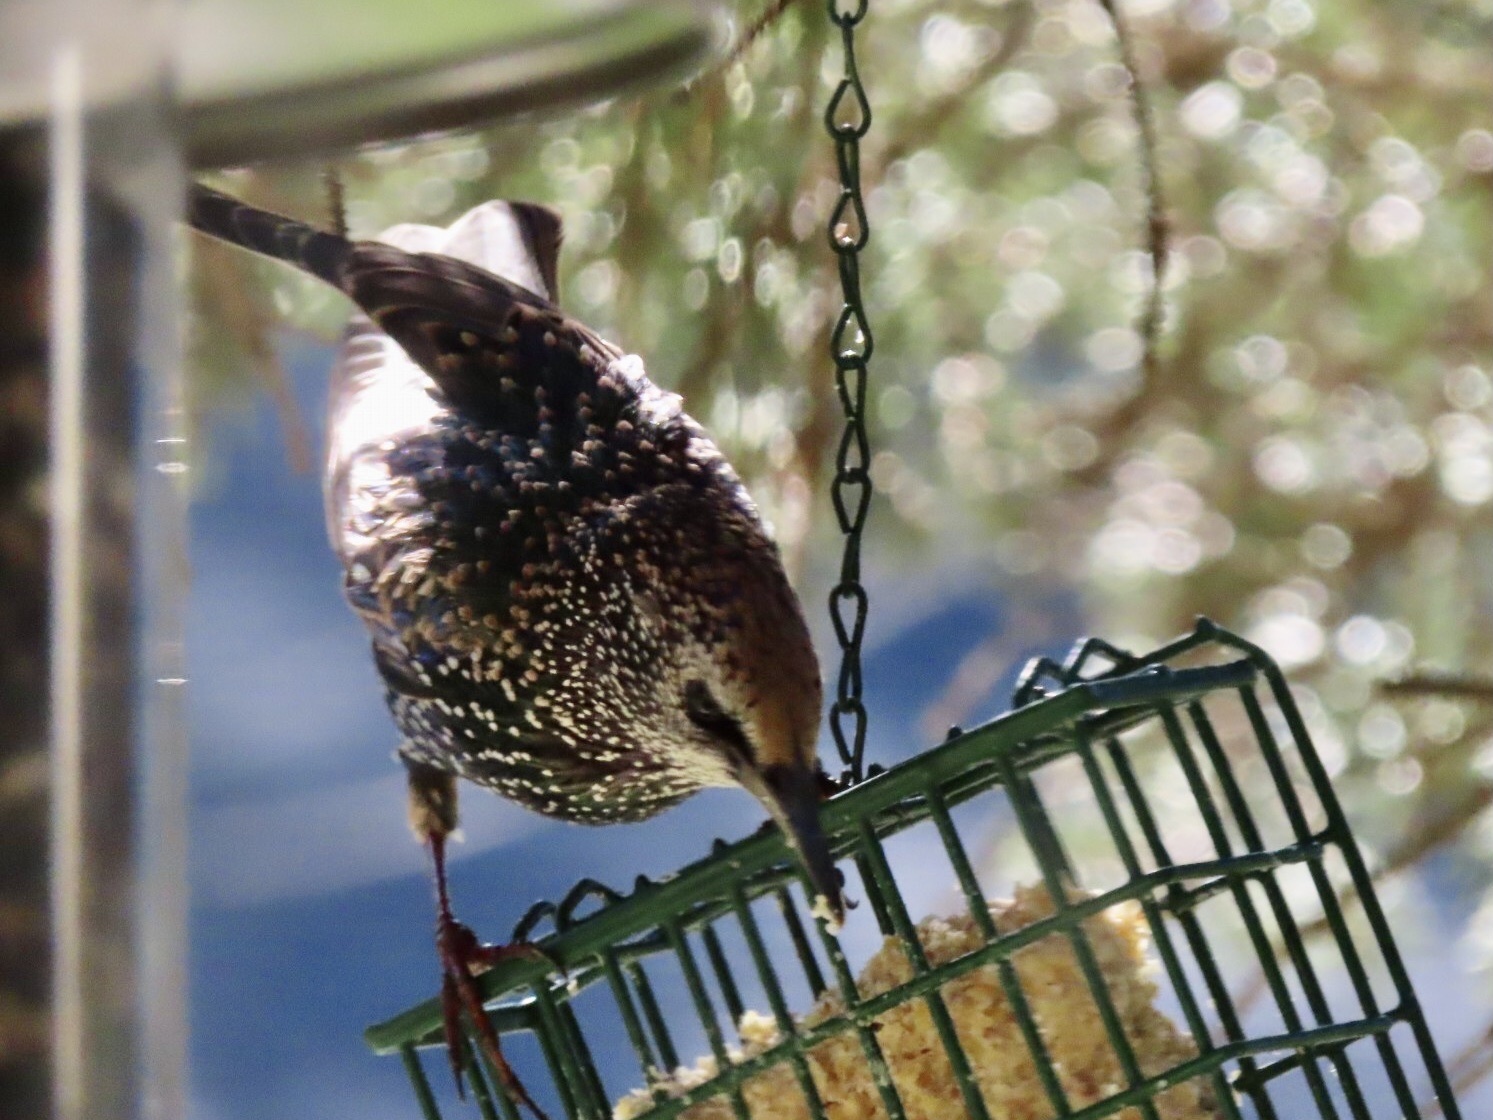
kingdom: Animalia
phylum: Chordata
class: Aves
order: Passeriformes
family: Sturnidae
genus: Sturnus
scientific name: Sturnus vulgaris
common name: Common starling
